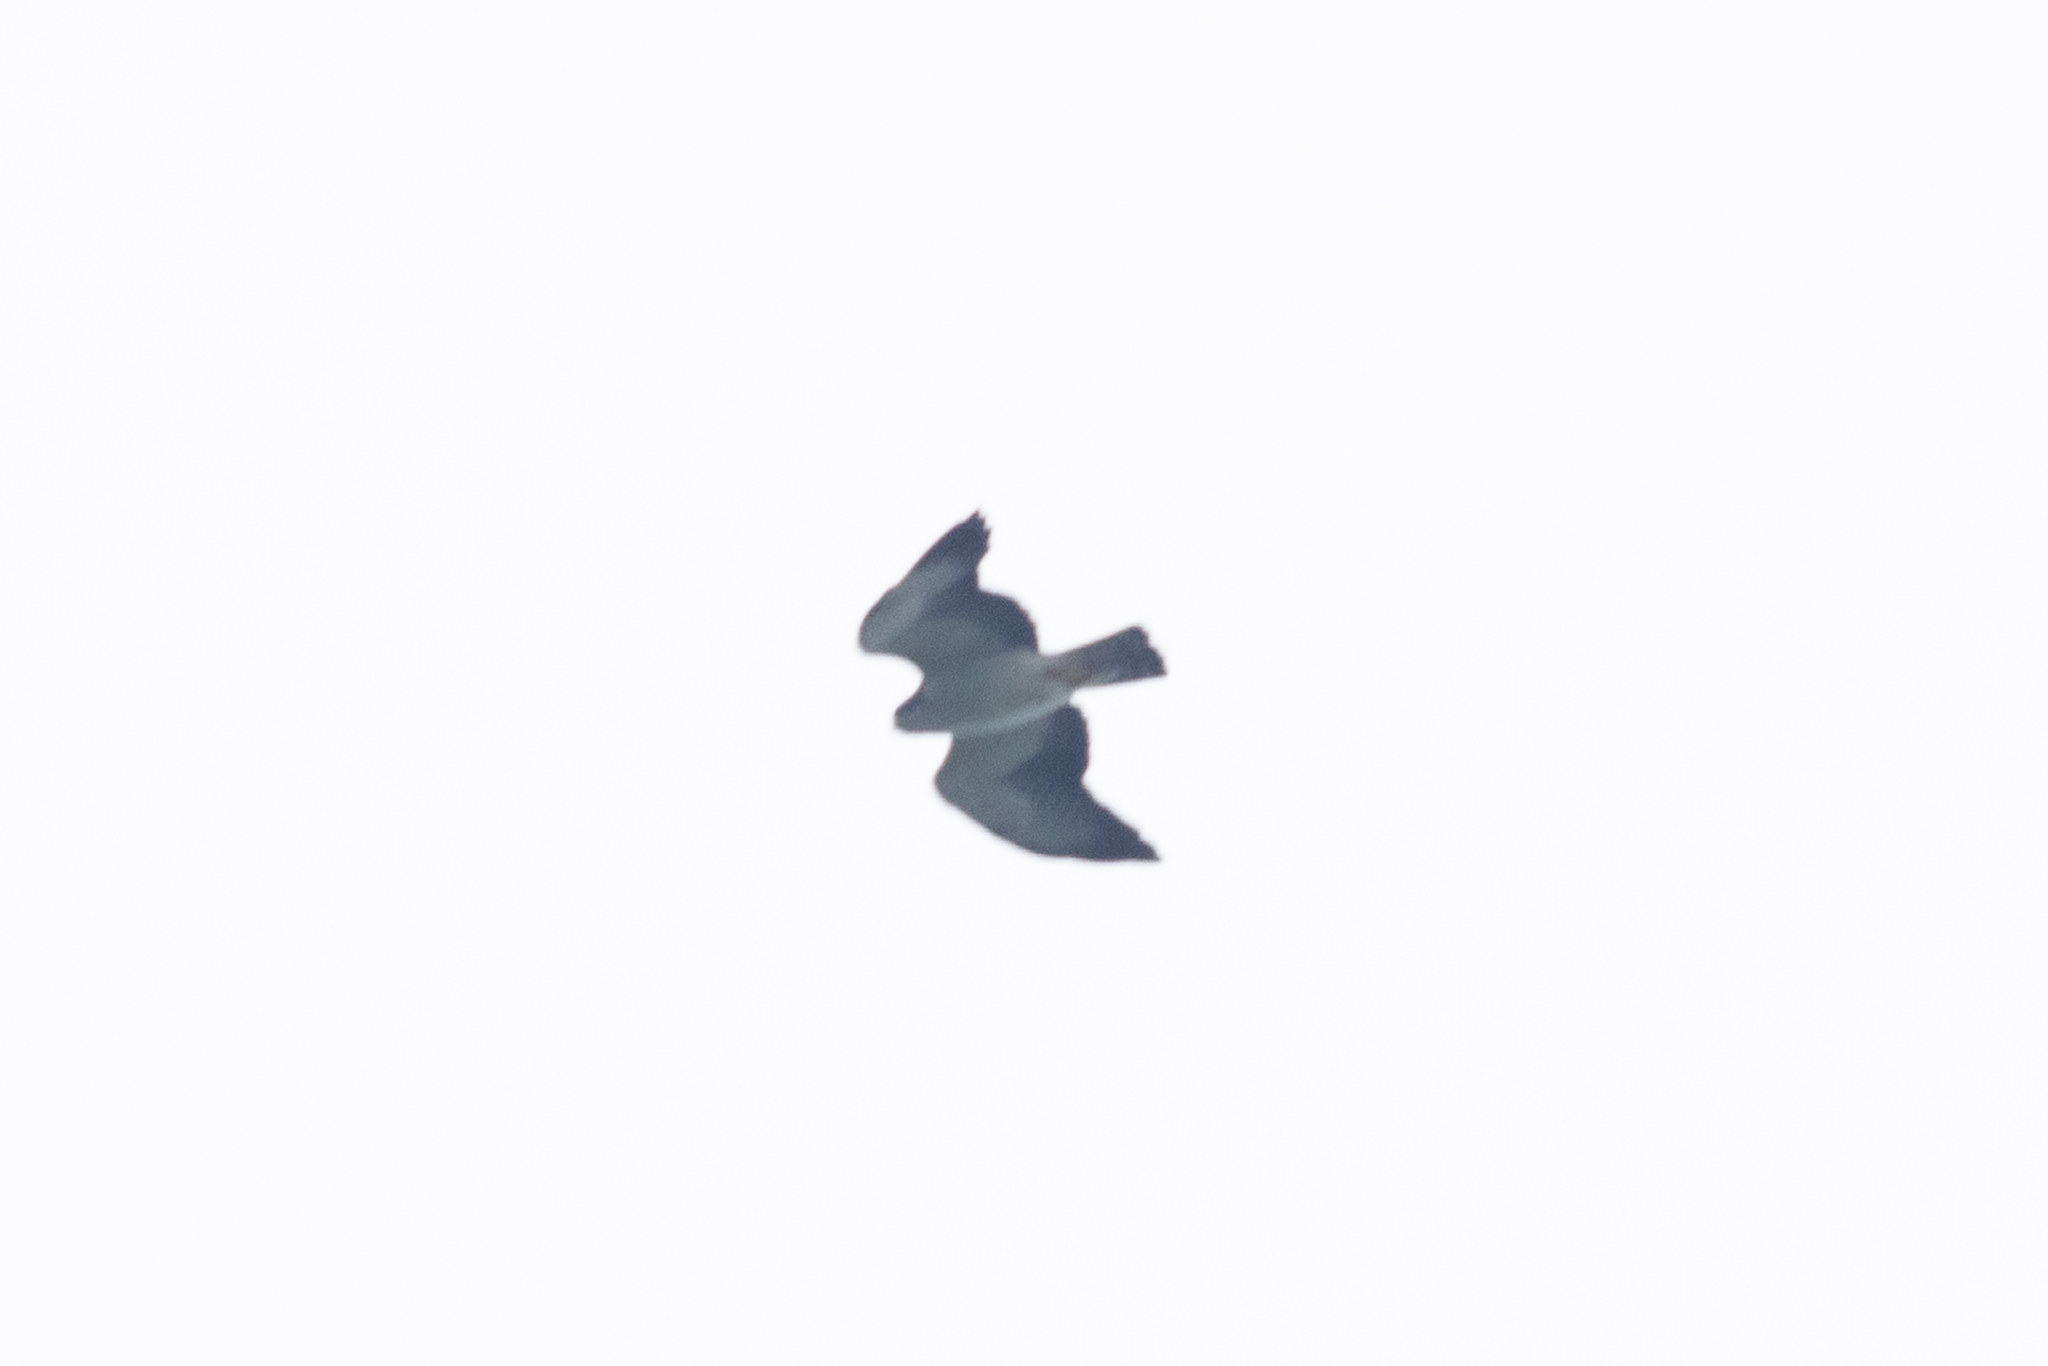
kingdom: Animalia
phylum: Chordata
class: Aves
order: Accipitriformes
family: Accipitridae
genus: Buteo
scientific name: Buteo brachyurus
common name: Short-tailed hawk
